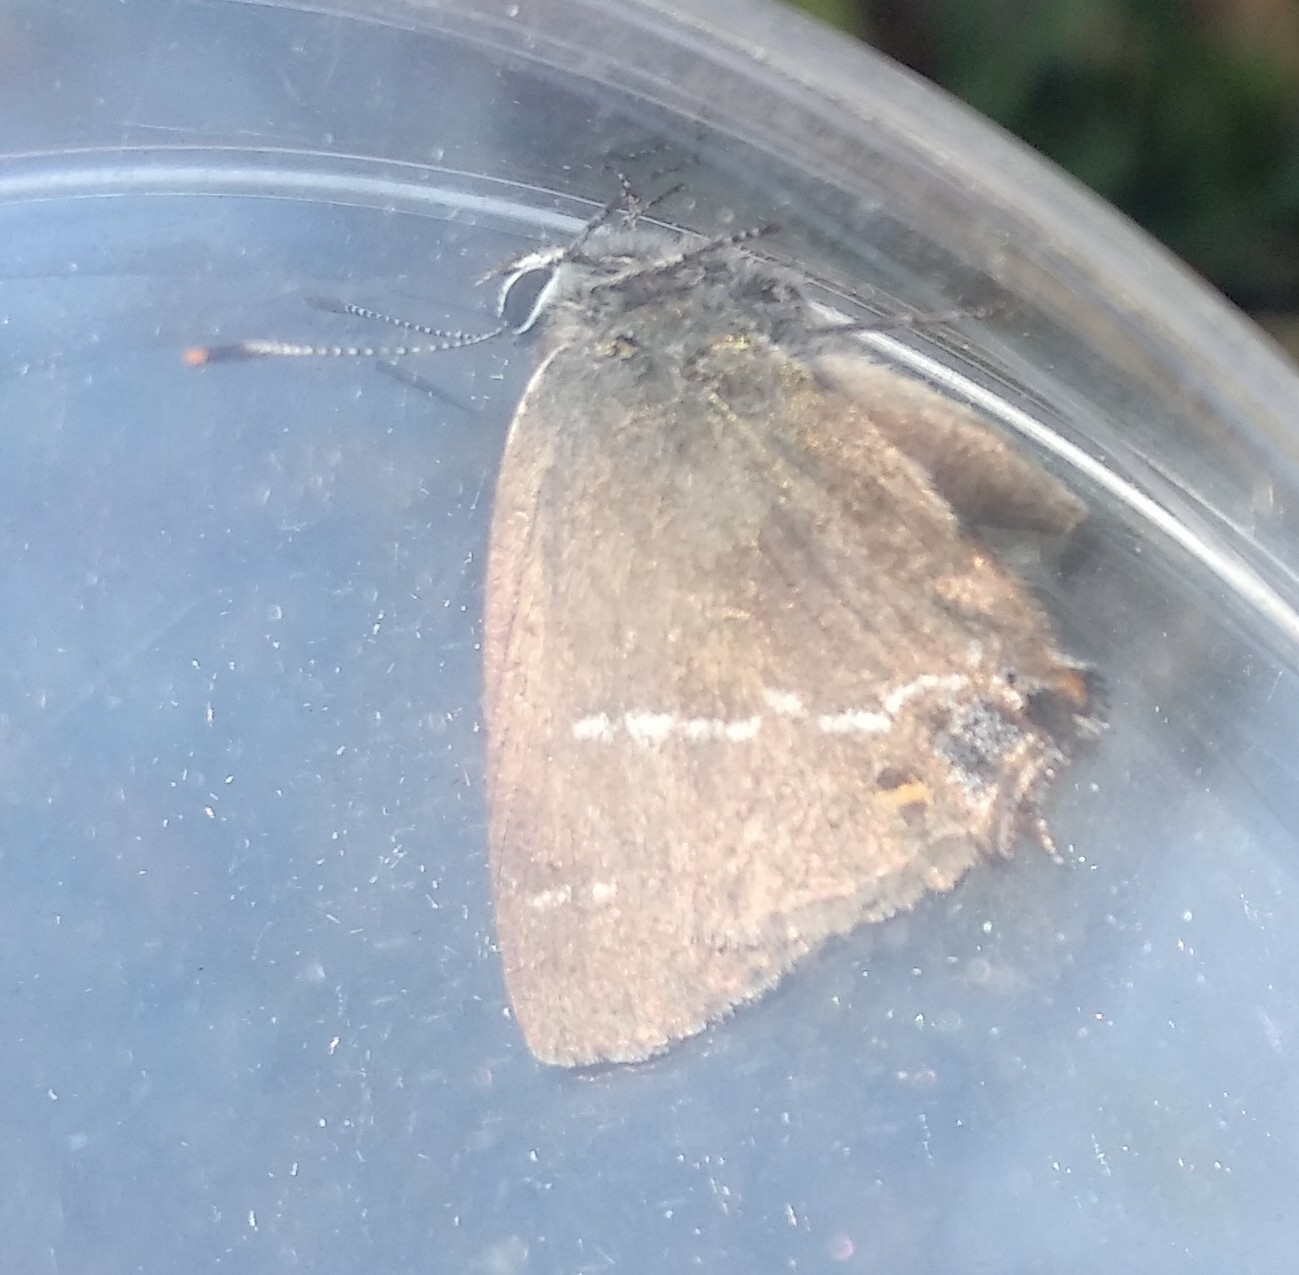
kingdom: Animalia
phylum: Arthropoda
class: Insecta
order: Lepidoptera
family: Lycaenidae
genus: Tuttiola
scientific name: Tuttiola spini
